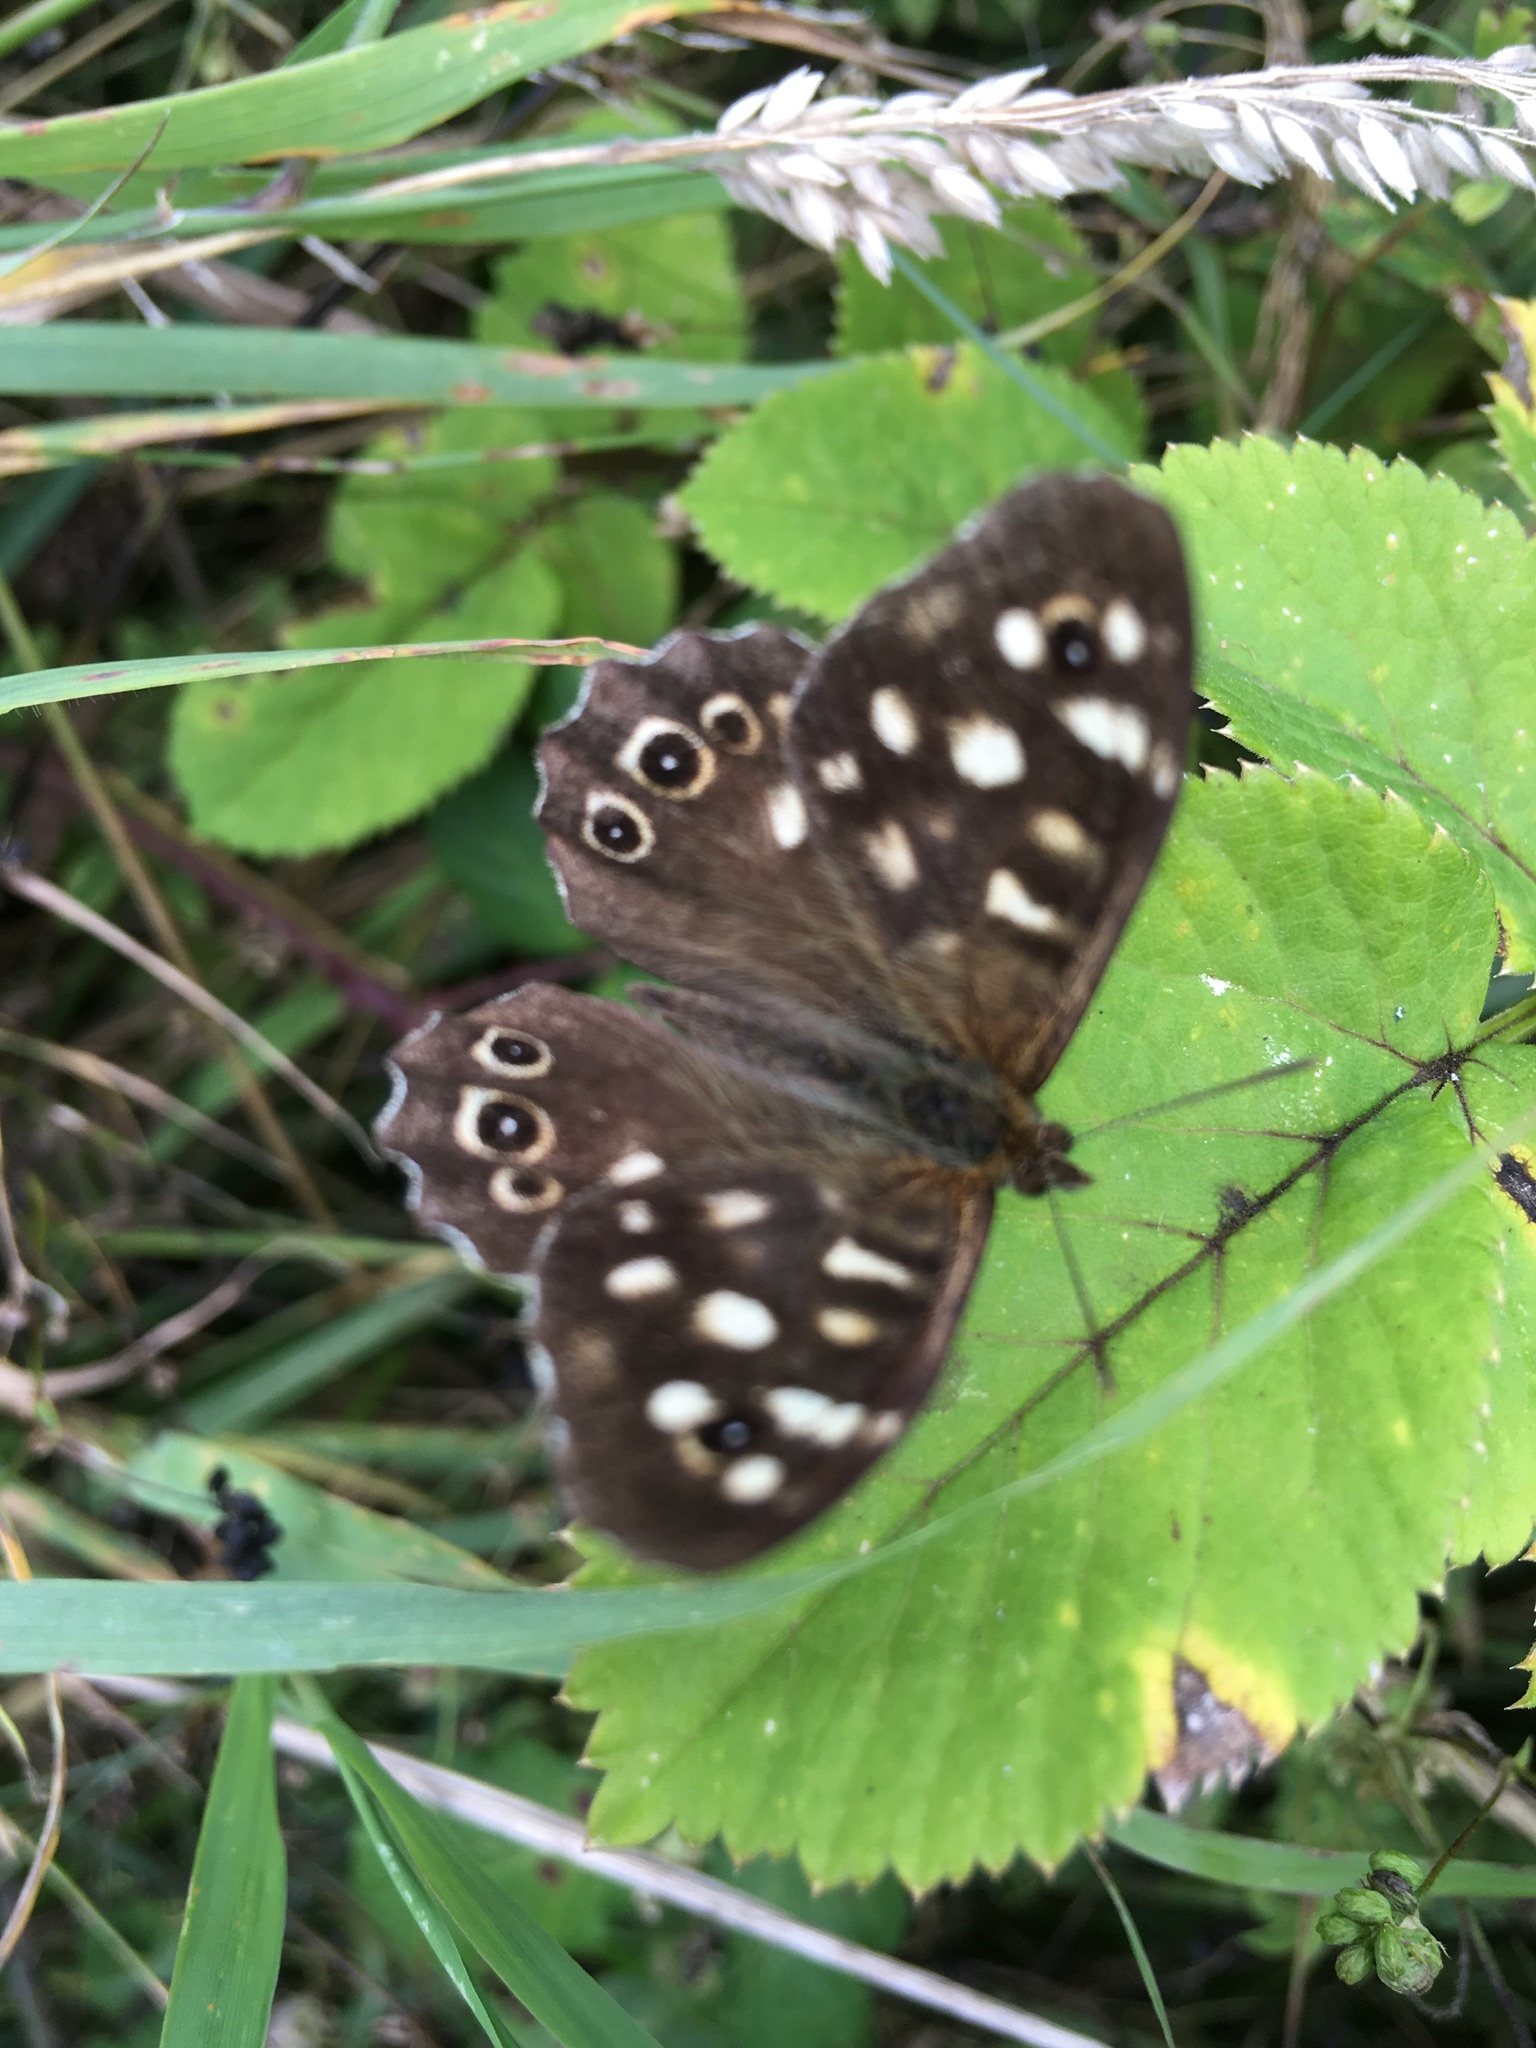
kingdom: Animalia
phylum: Arthropoda
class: Insecta
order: Lepidoptera
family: Nymphalidae
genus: Pararge
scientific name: Pararge aegeria
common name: Speckled wood
